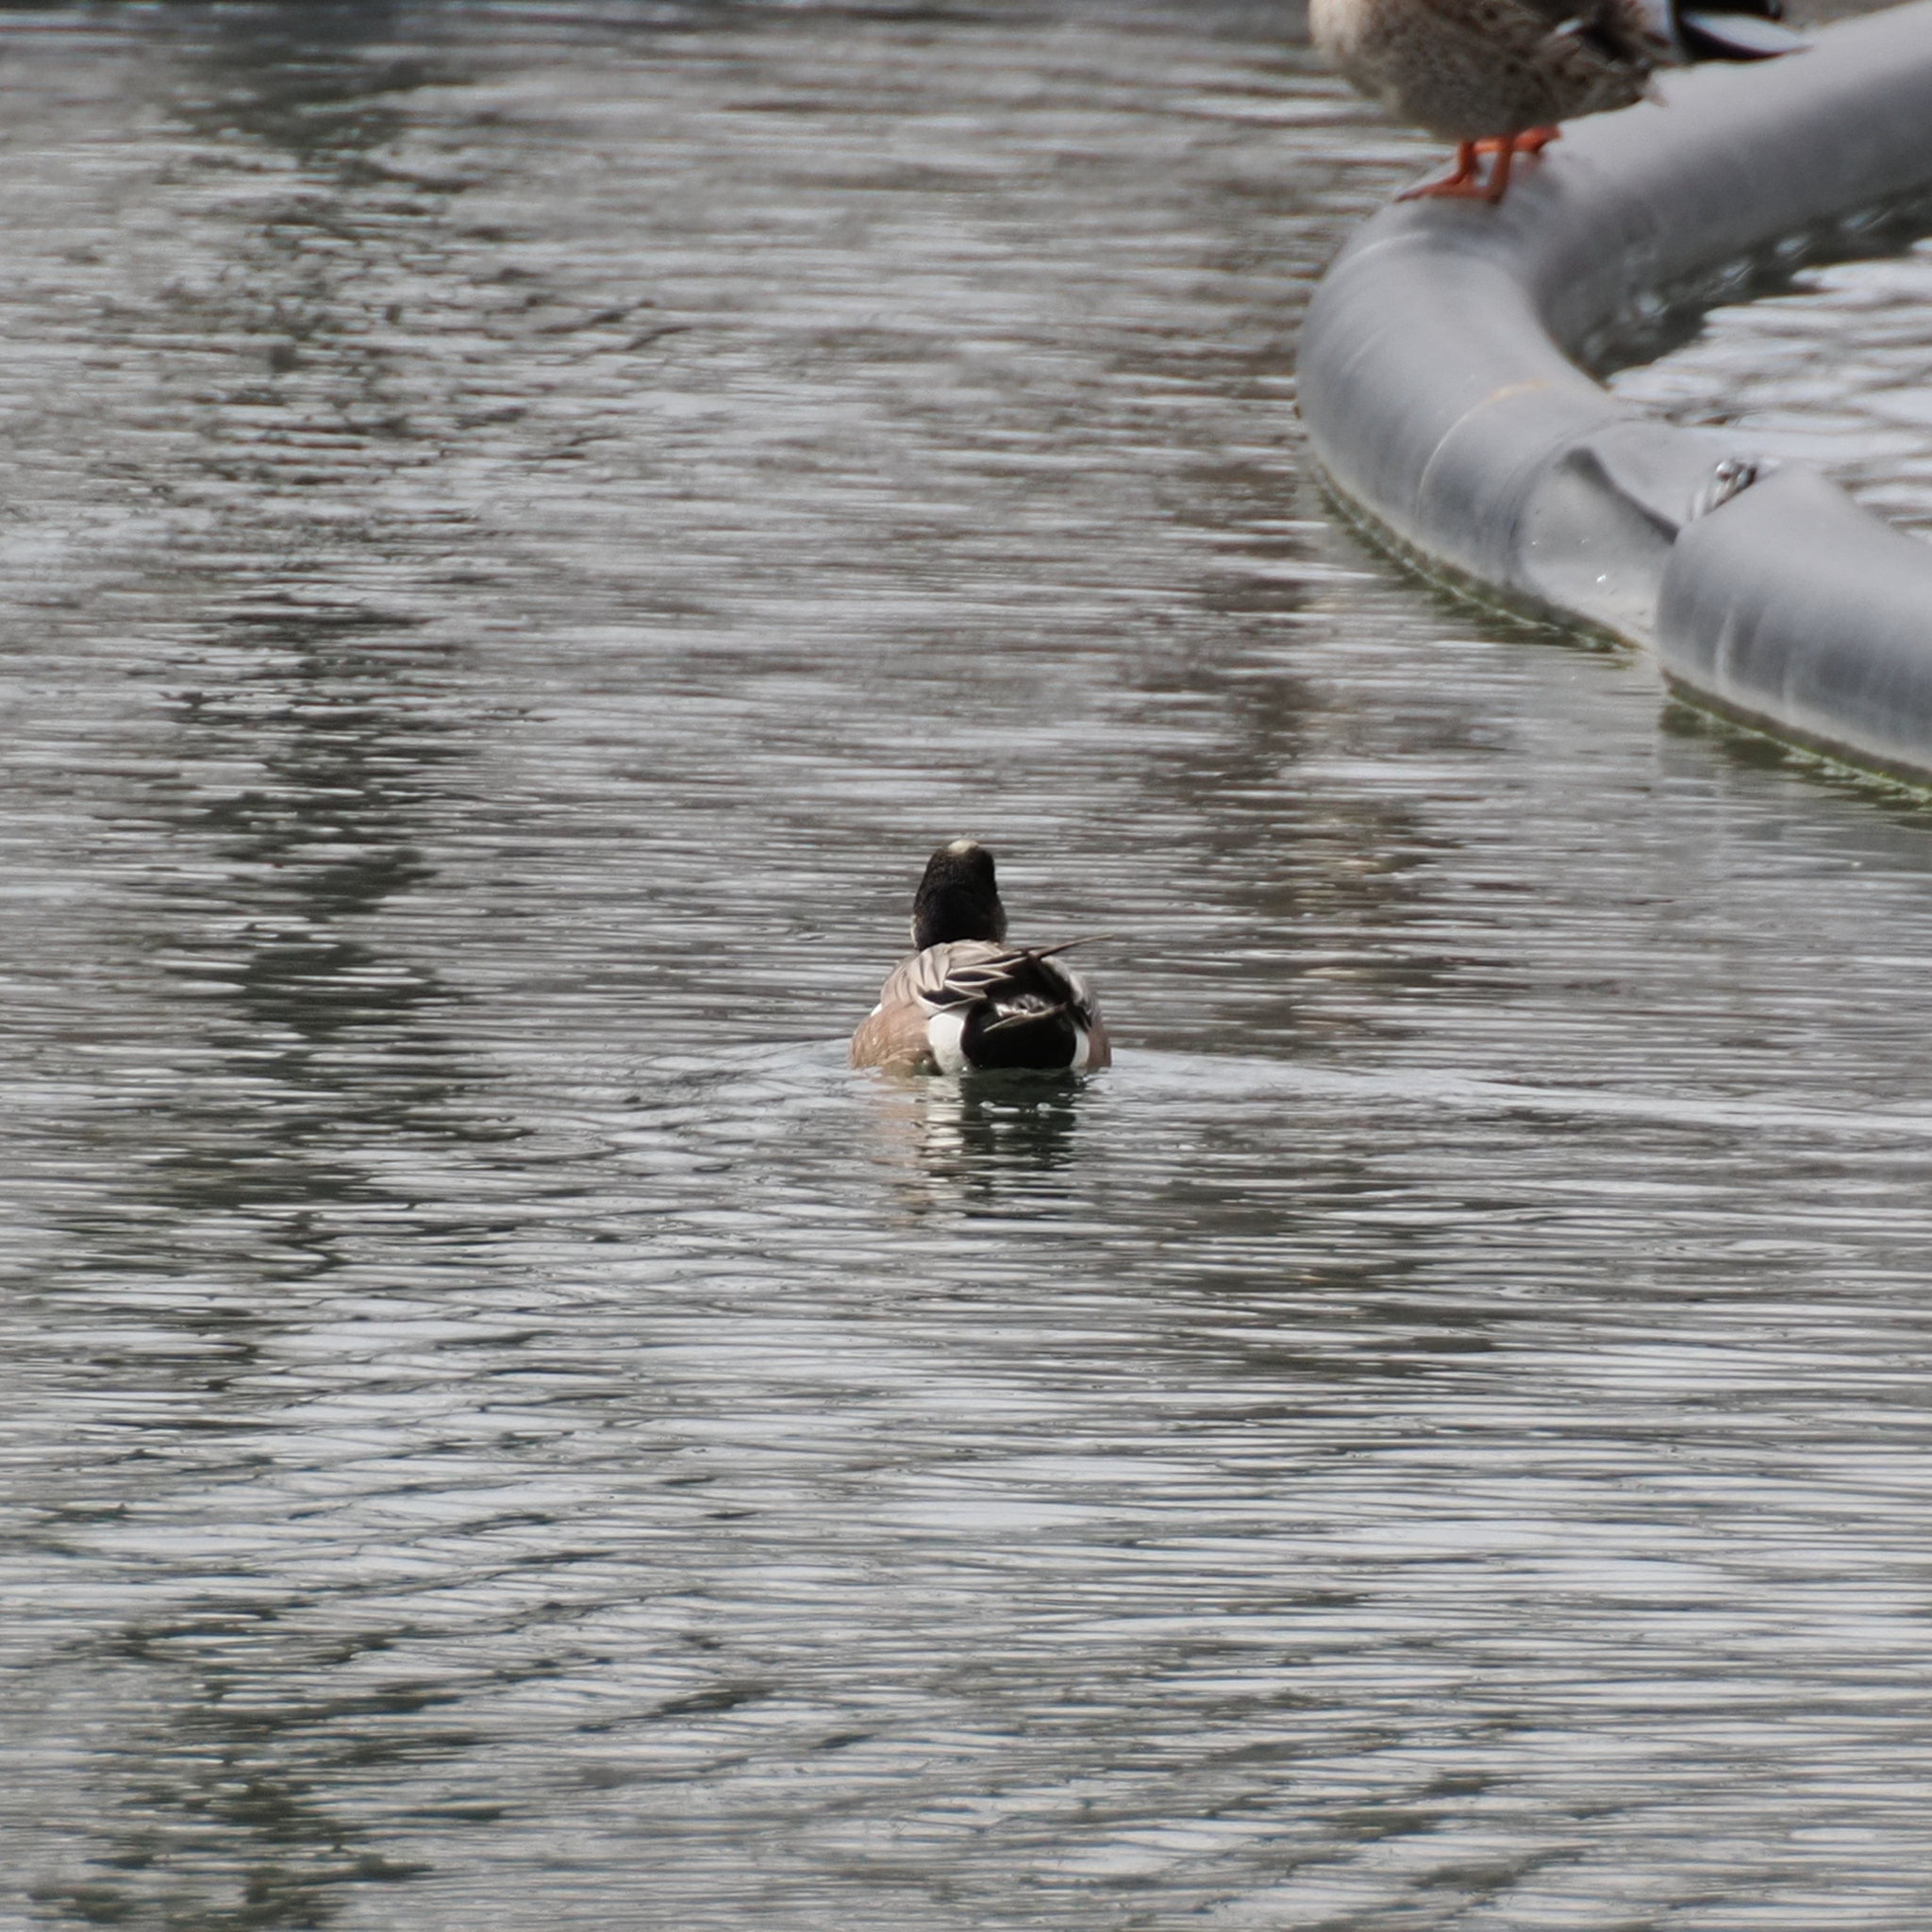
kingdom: Animalia
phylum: Chordata
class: Aves
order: Anseriformes
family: Anatidae
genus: Mareca
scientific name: Mareca americana
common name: American wigeon
